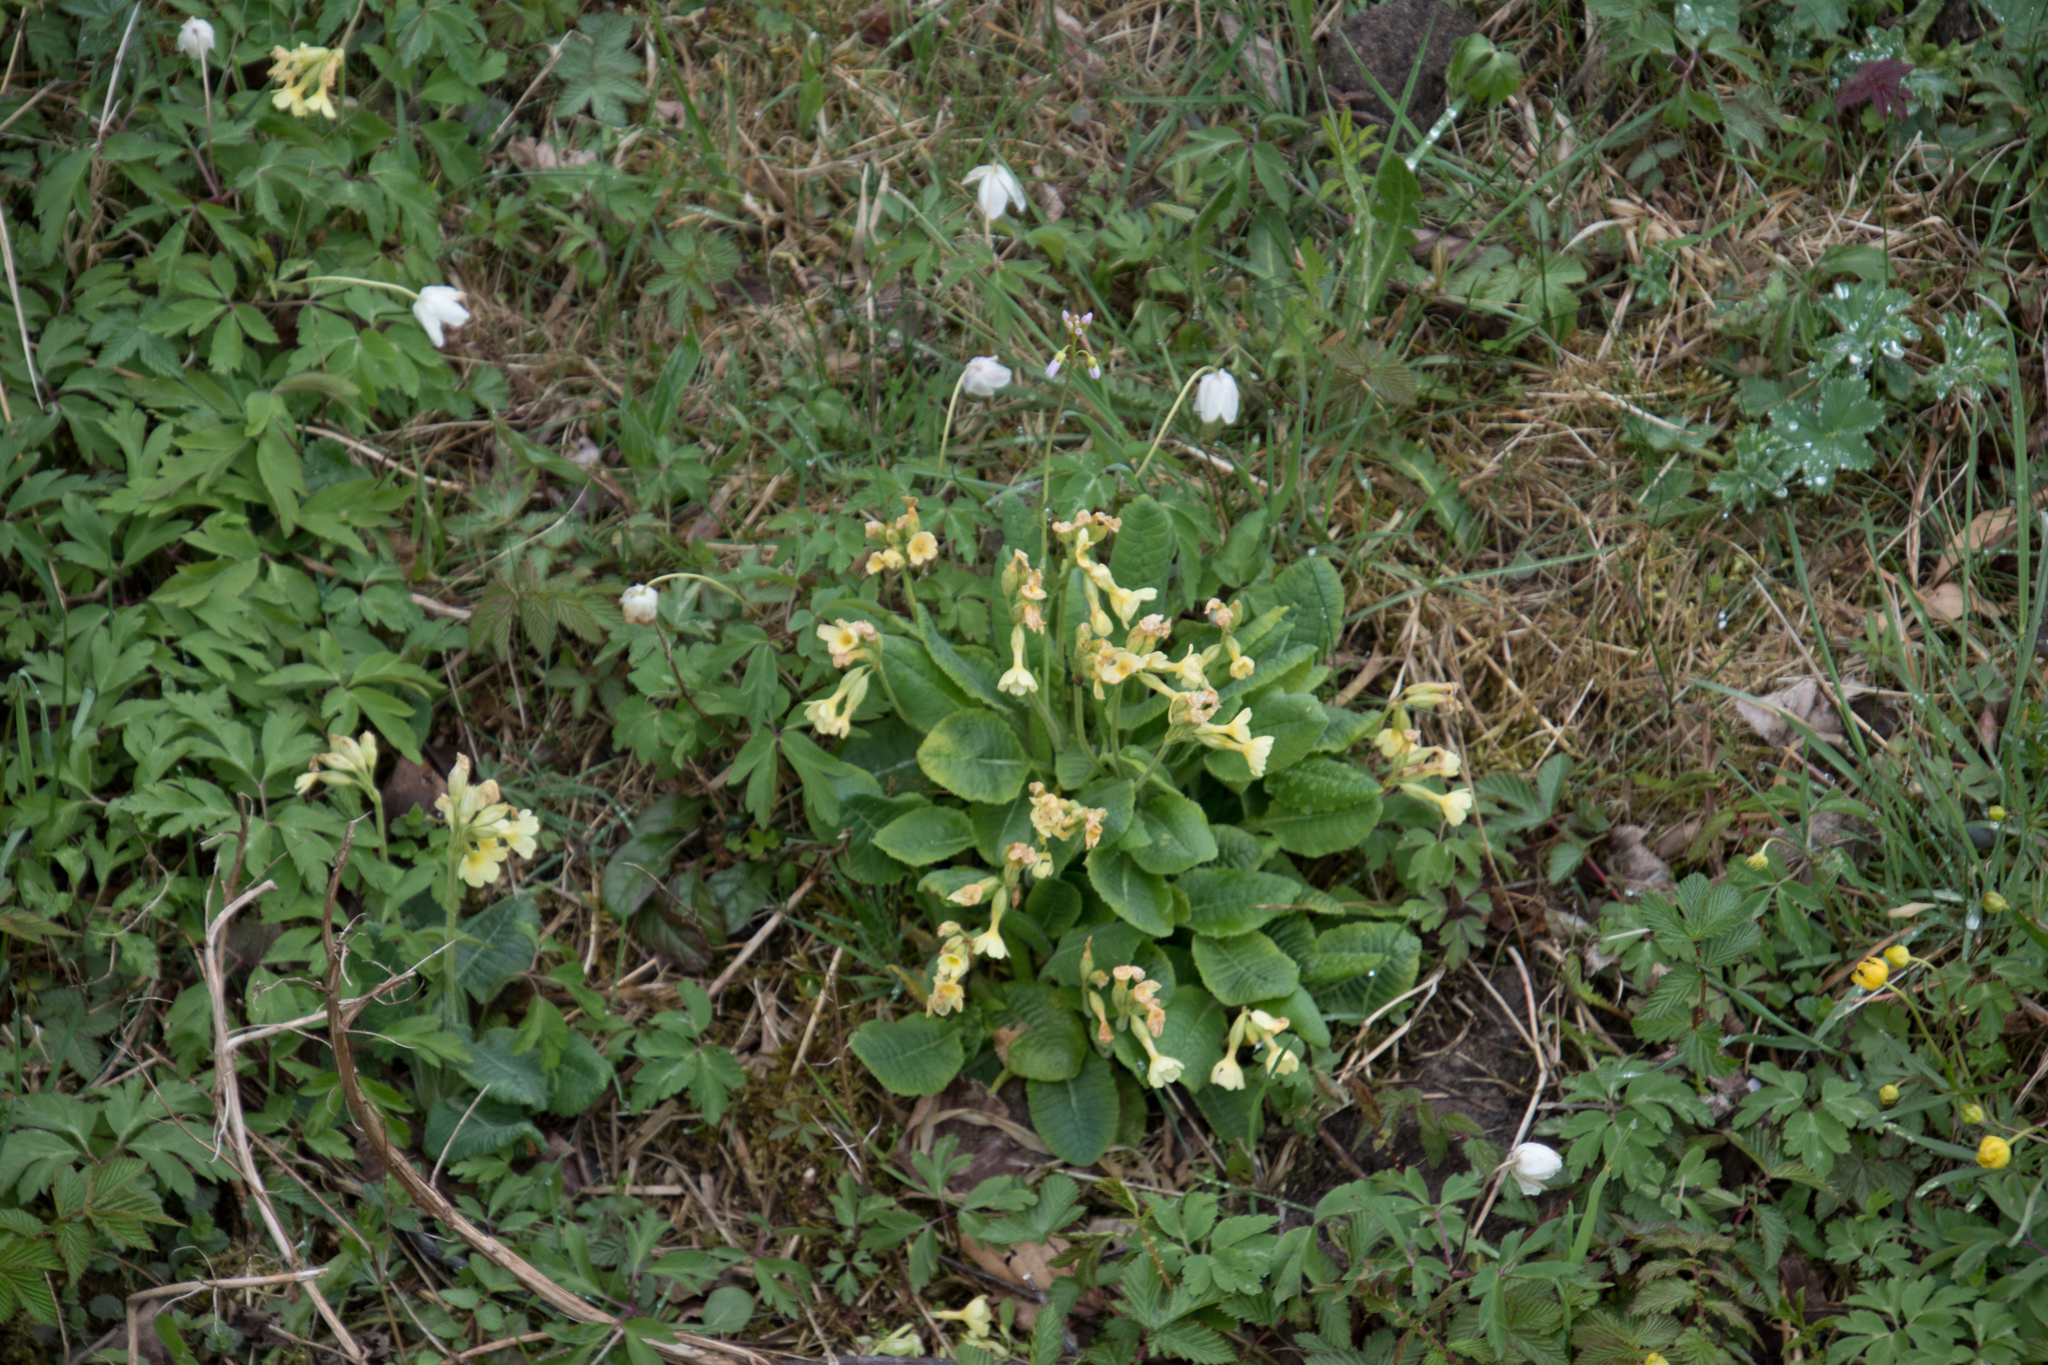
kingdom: Plantae
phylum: Tracheophyta
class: Magnoliopsida
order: Ericales
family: Primulaceae
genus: Primula
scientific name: Primula elatior
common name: Oxlip
